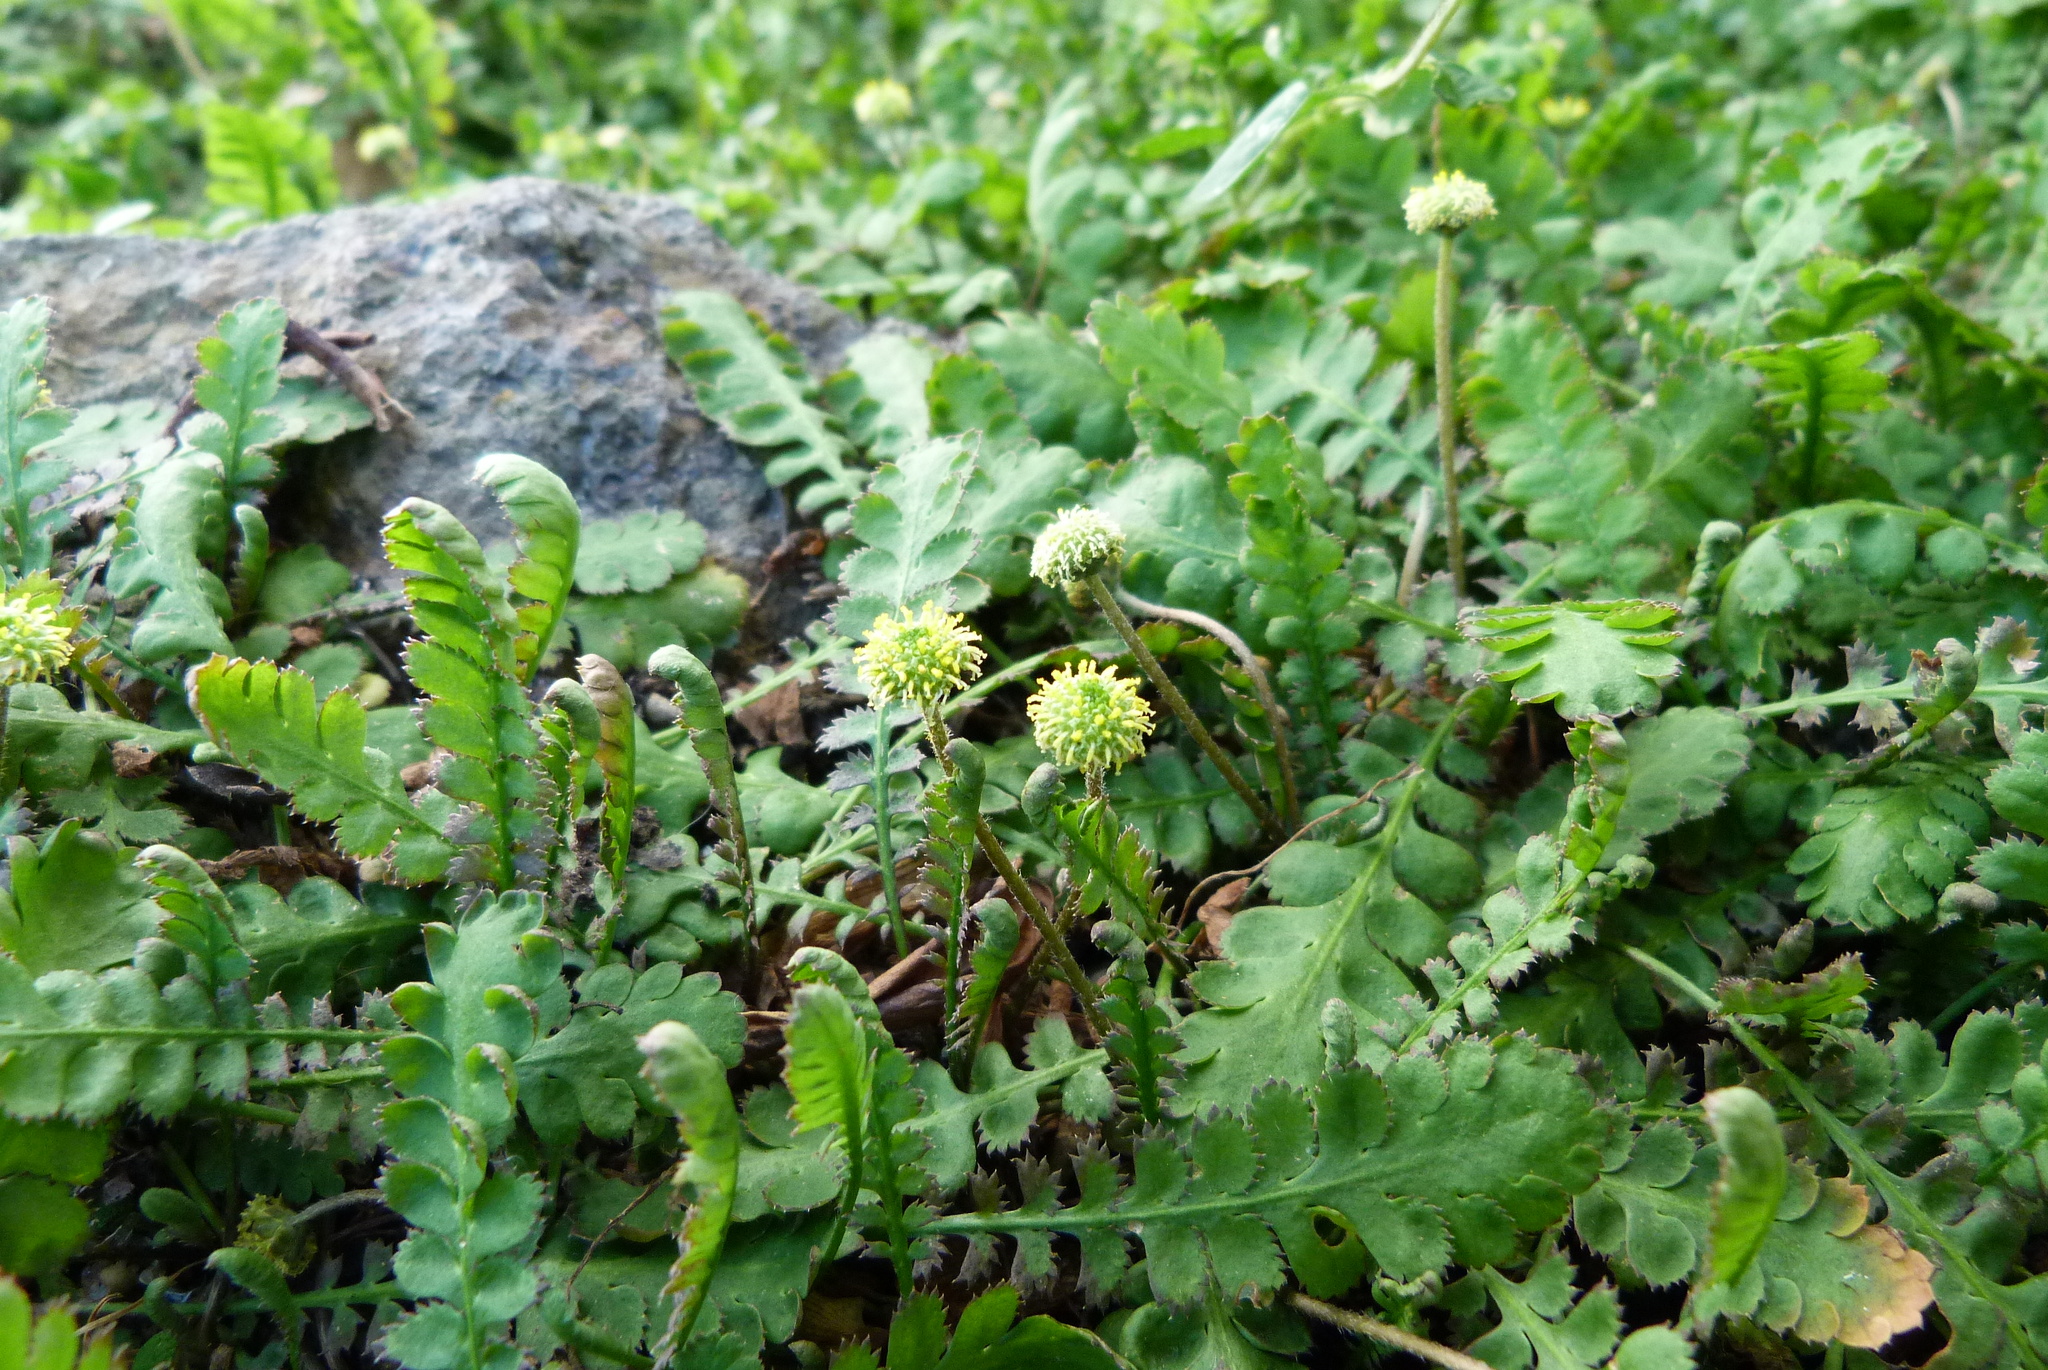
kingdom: Plantae
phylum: Tracheophyta
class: Magnoliopsida
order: Asterales
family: Asteraceae
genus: Leptinella
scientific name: Leptinella dioica
